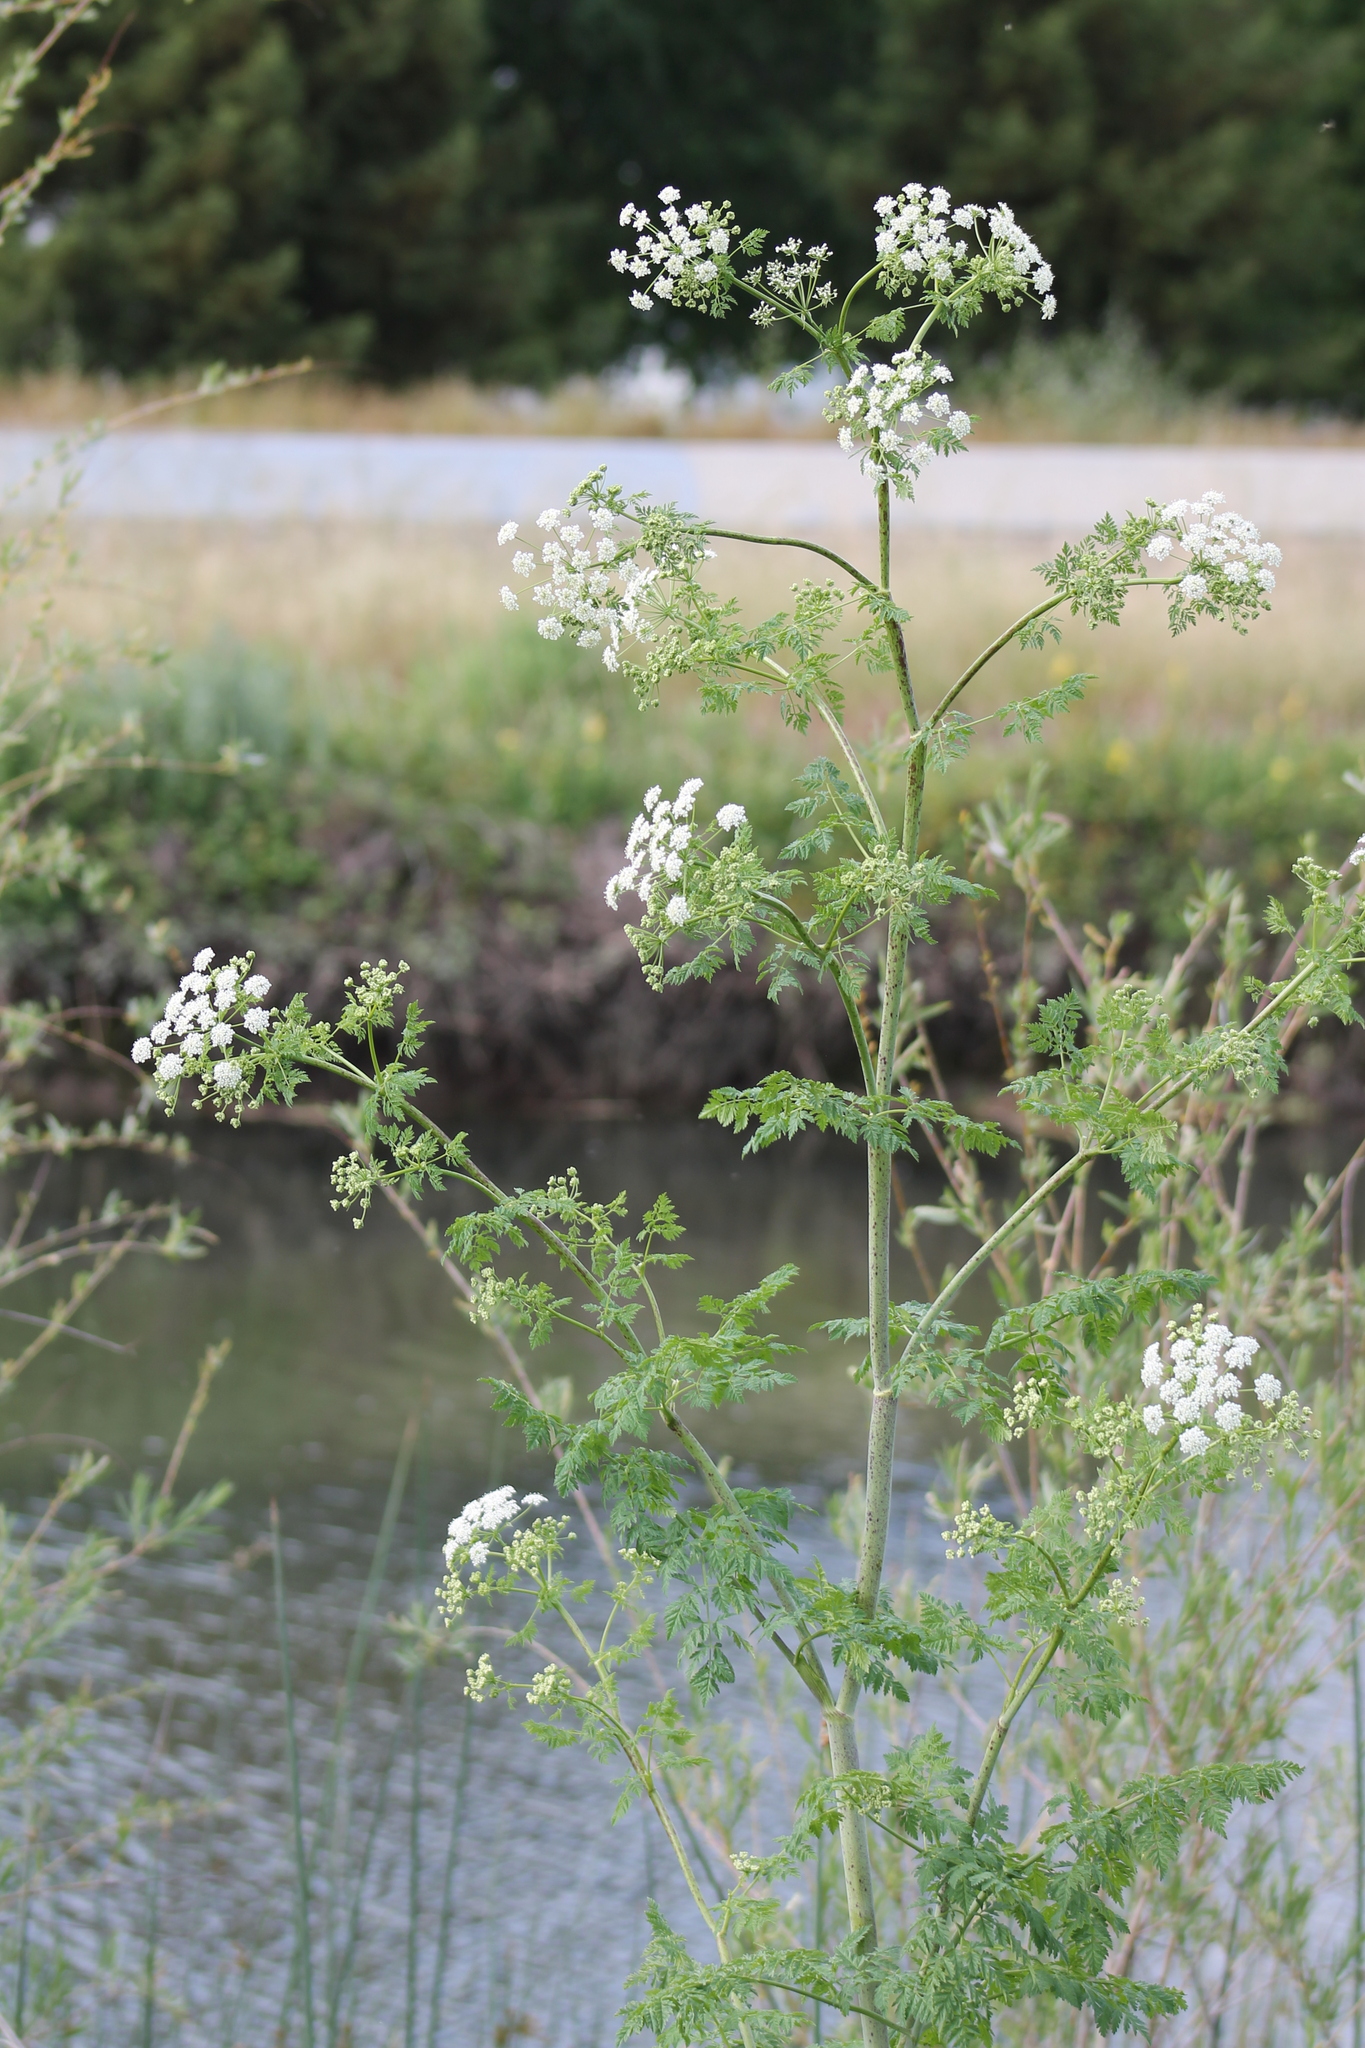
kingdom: Plantae
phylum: Tracheophyta
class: Magnoliopsida
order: Apiales
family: Apiaceae
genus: Conium
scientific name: Conium maculatum
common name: Hemlock
